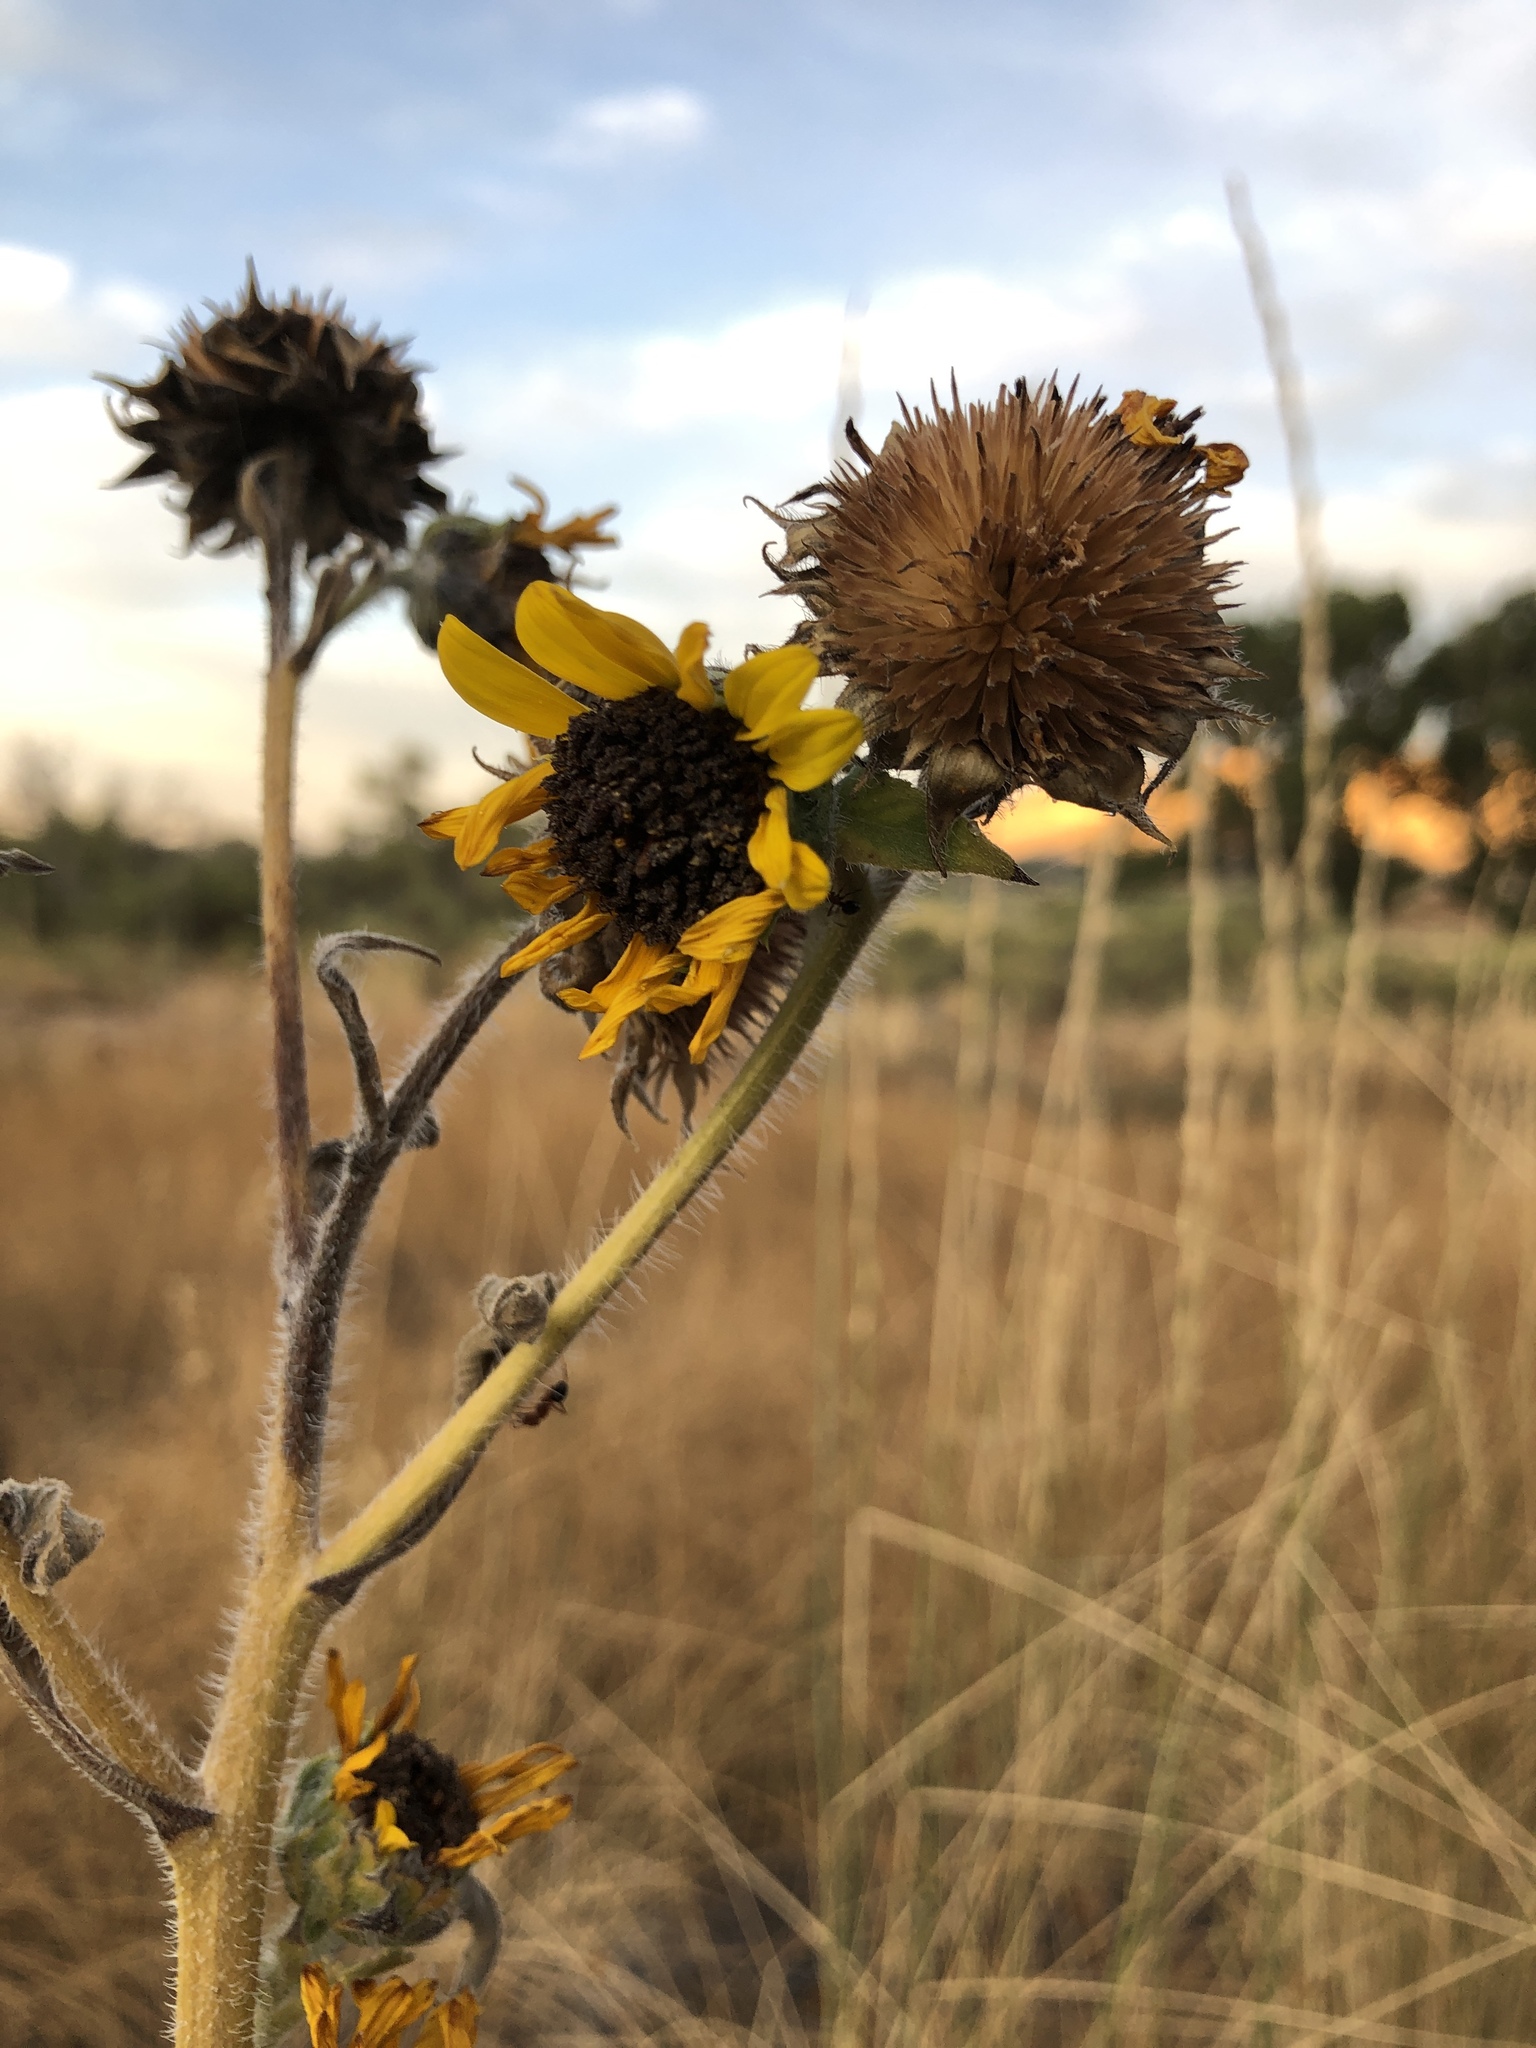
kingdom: Plantae
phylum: Tracheophyta
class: Magnoliopsida
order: Asterales
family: Asteraceae
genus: Helianthus
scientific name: Helianthus annuus
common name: Sunflower
